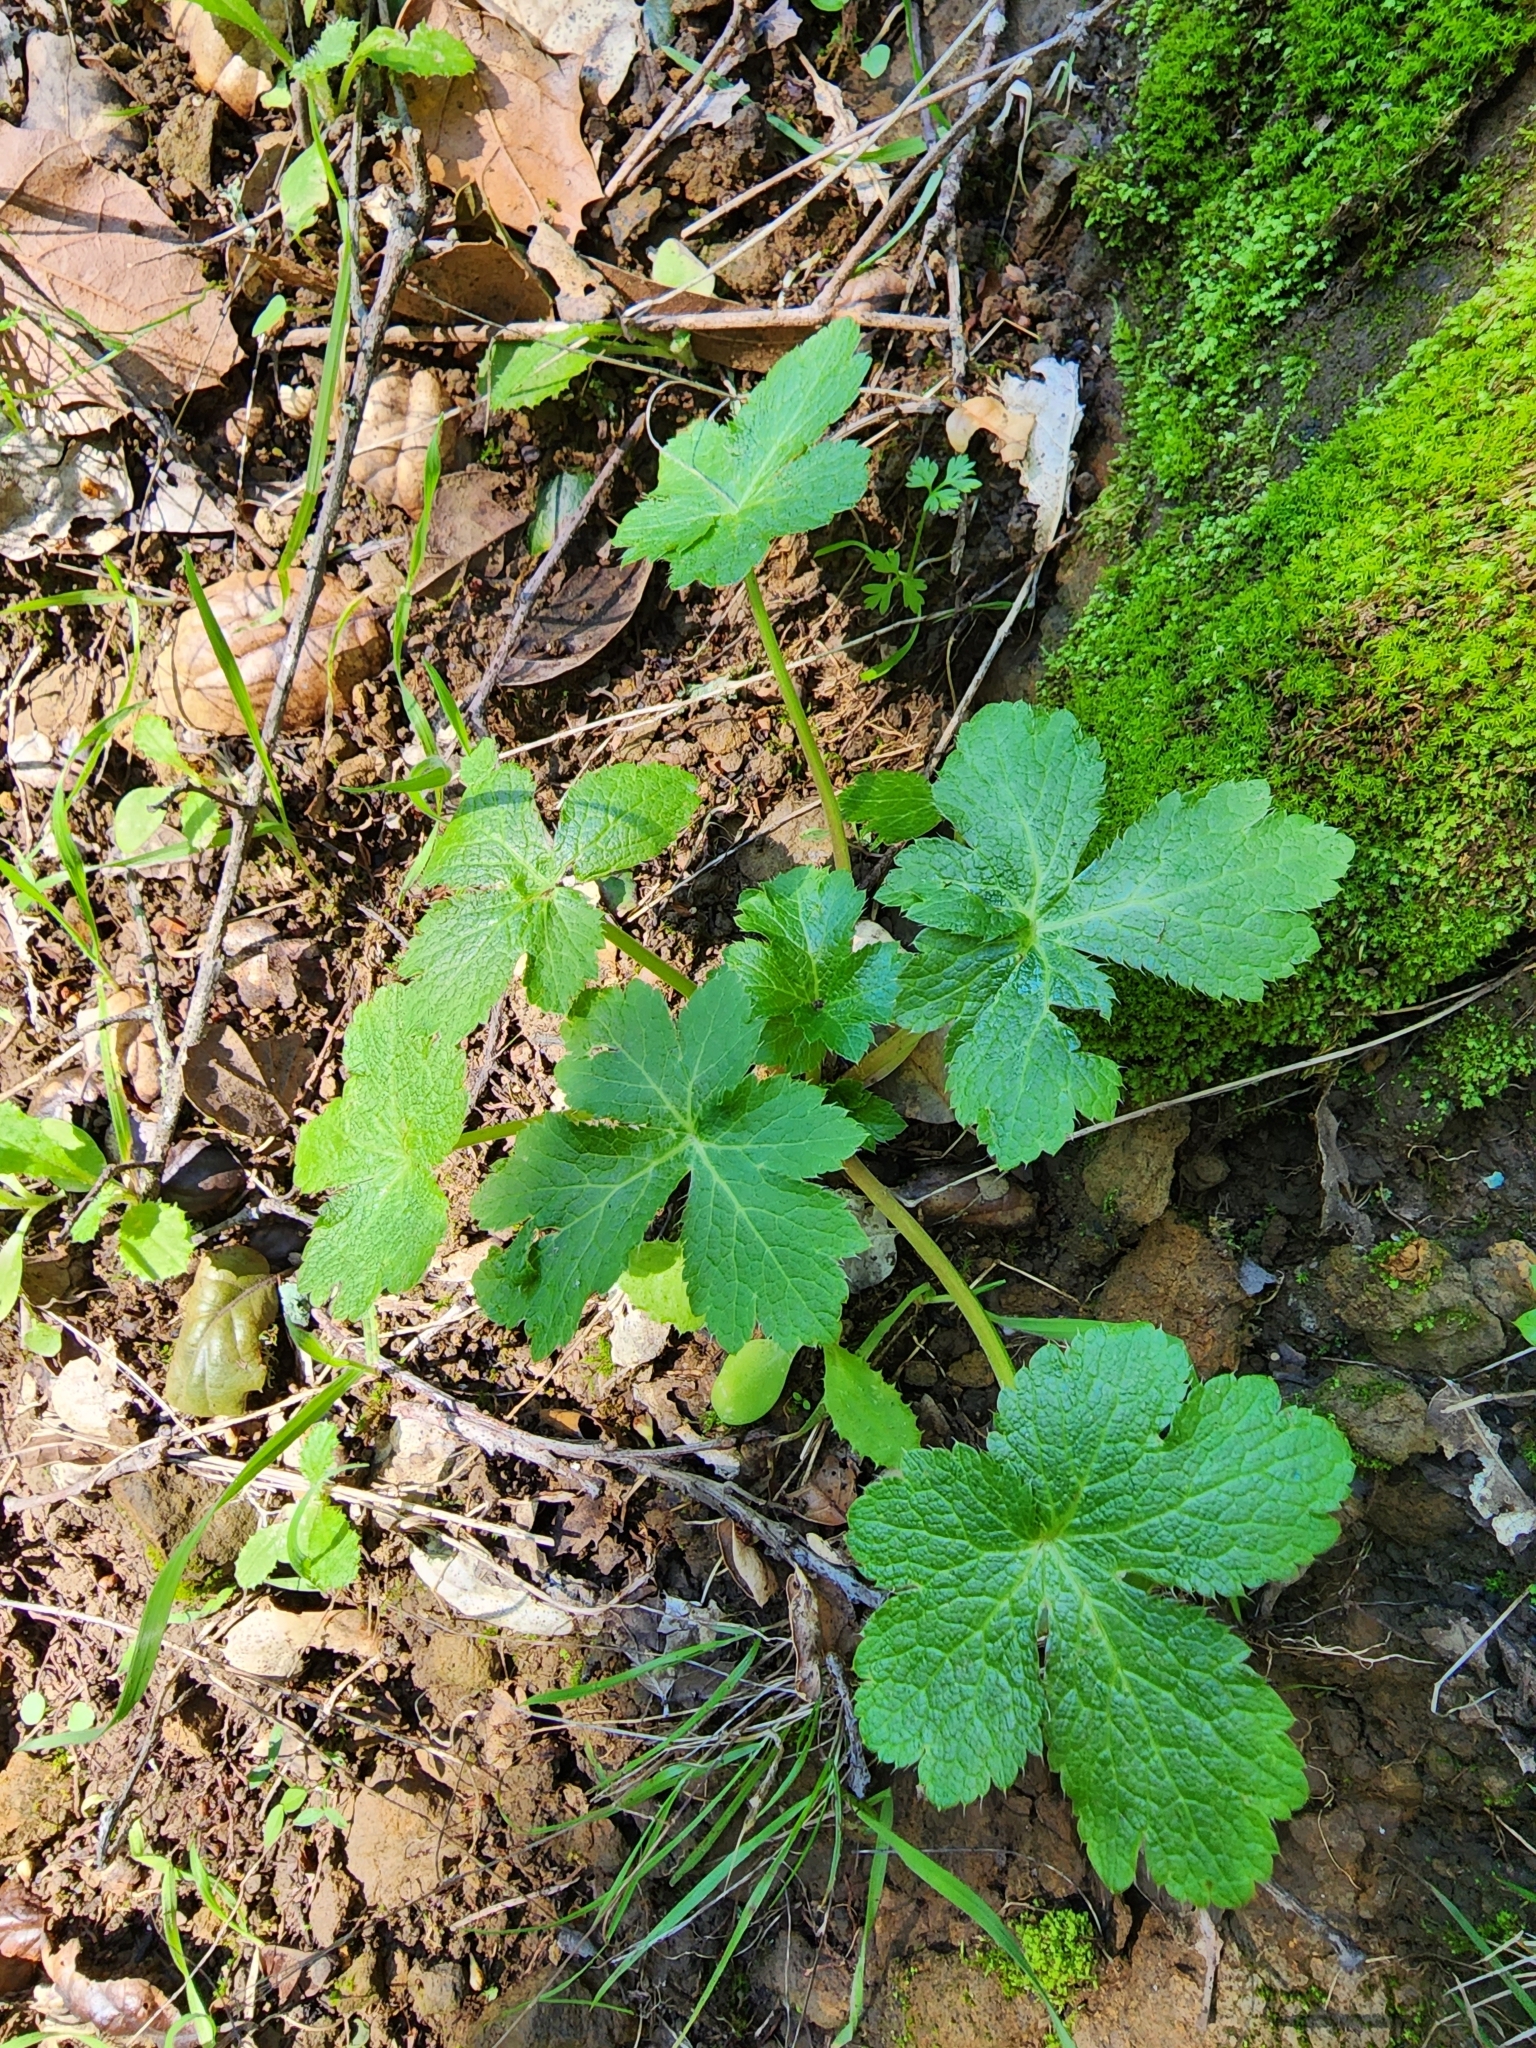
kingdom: Plantae
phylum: Tracheophyta
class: Magnoliopsida
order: Apiales
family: Apiaceae
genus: Sanicula
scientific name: Sanicula crassicaulis
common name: Western snakeroot
